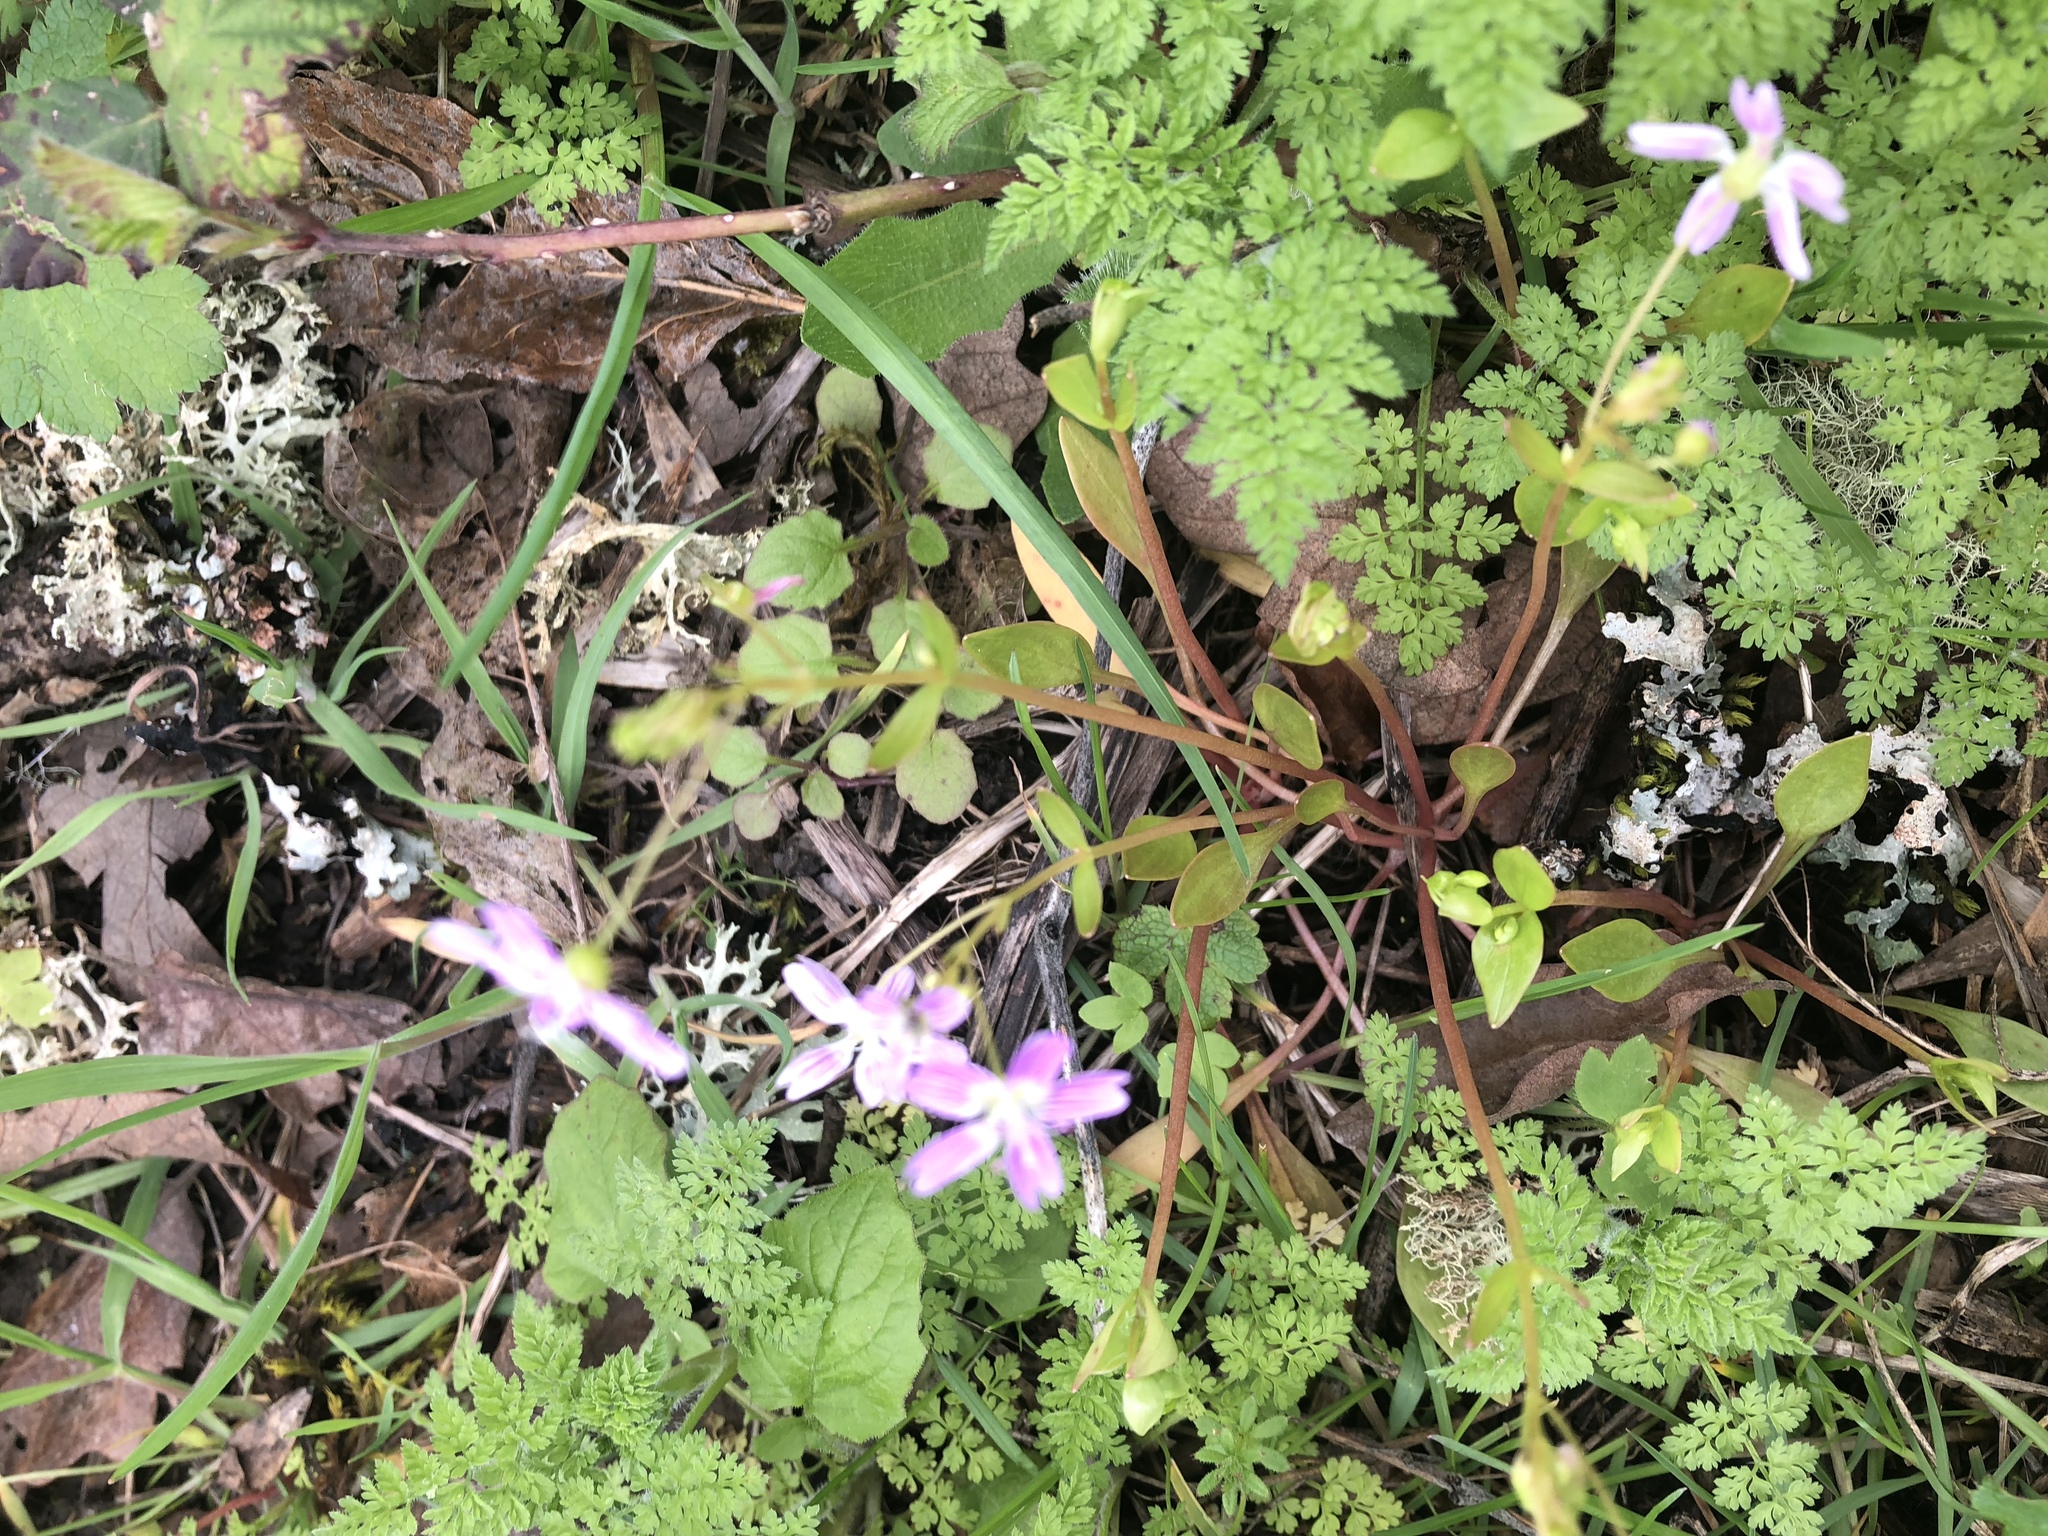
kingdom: Plantae
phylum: Tracheophyta
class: Magnoliopsida
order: Caryophyllales
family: Montiaceae
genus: Claytonia
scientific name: Claytonia sibirica
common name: Pink purslane
